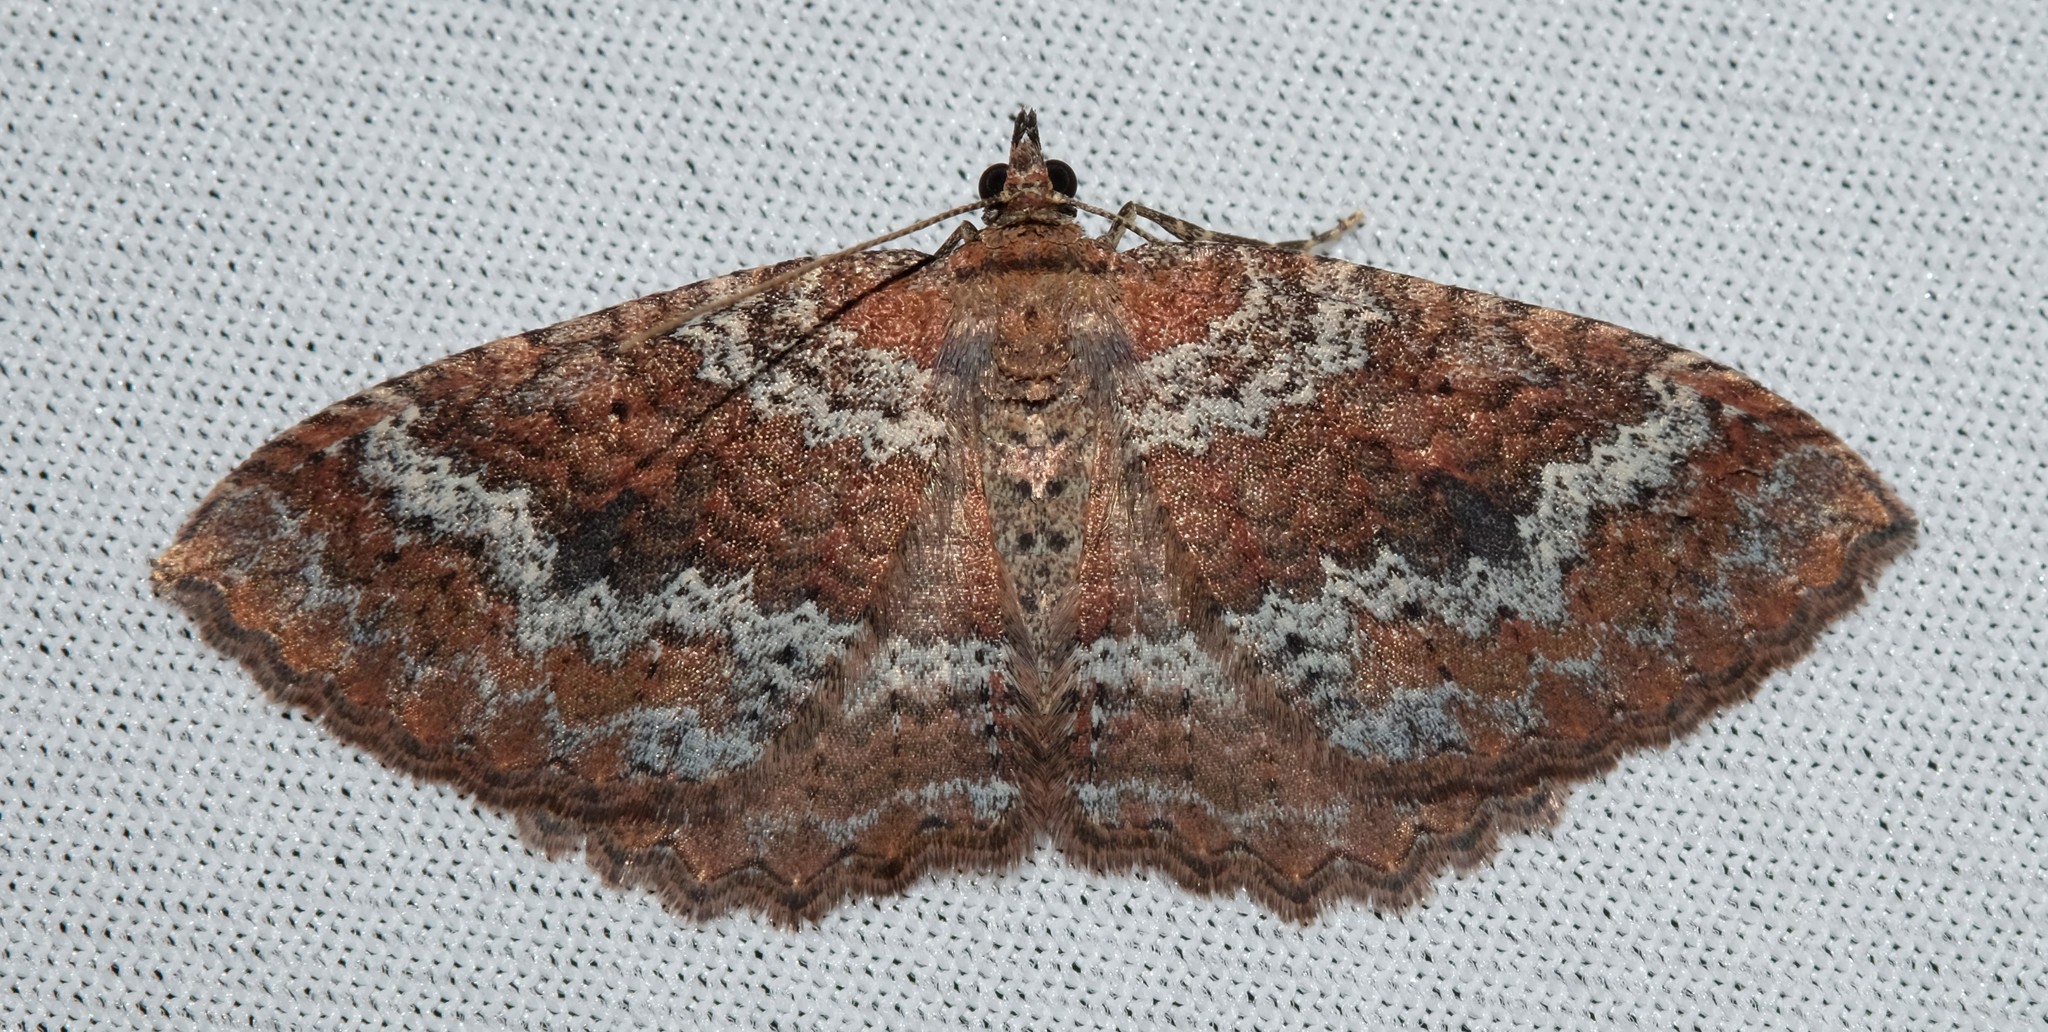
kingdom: Animalia
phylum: Arthropoda
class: Insecta
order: Lepidoptera
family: Geometridae
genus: Acodia
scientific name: Acodia pauper
